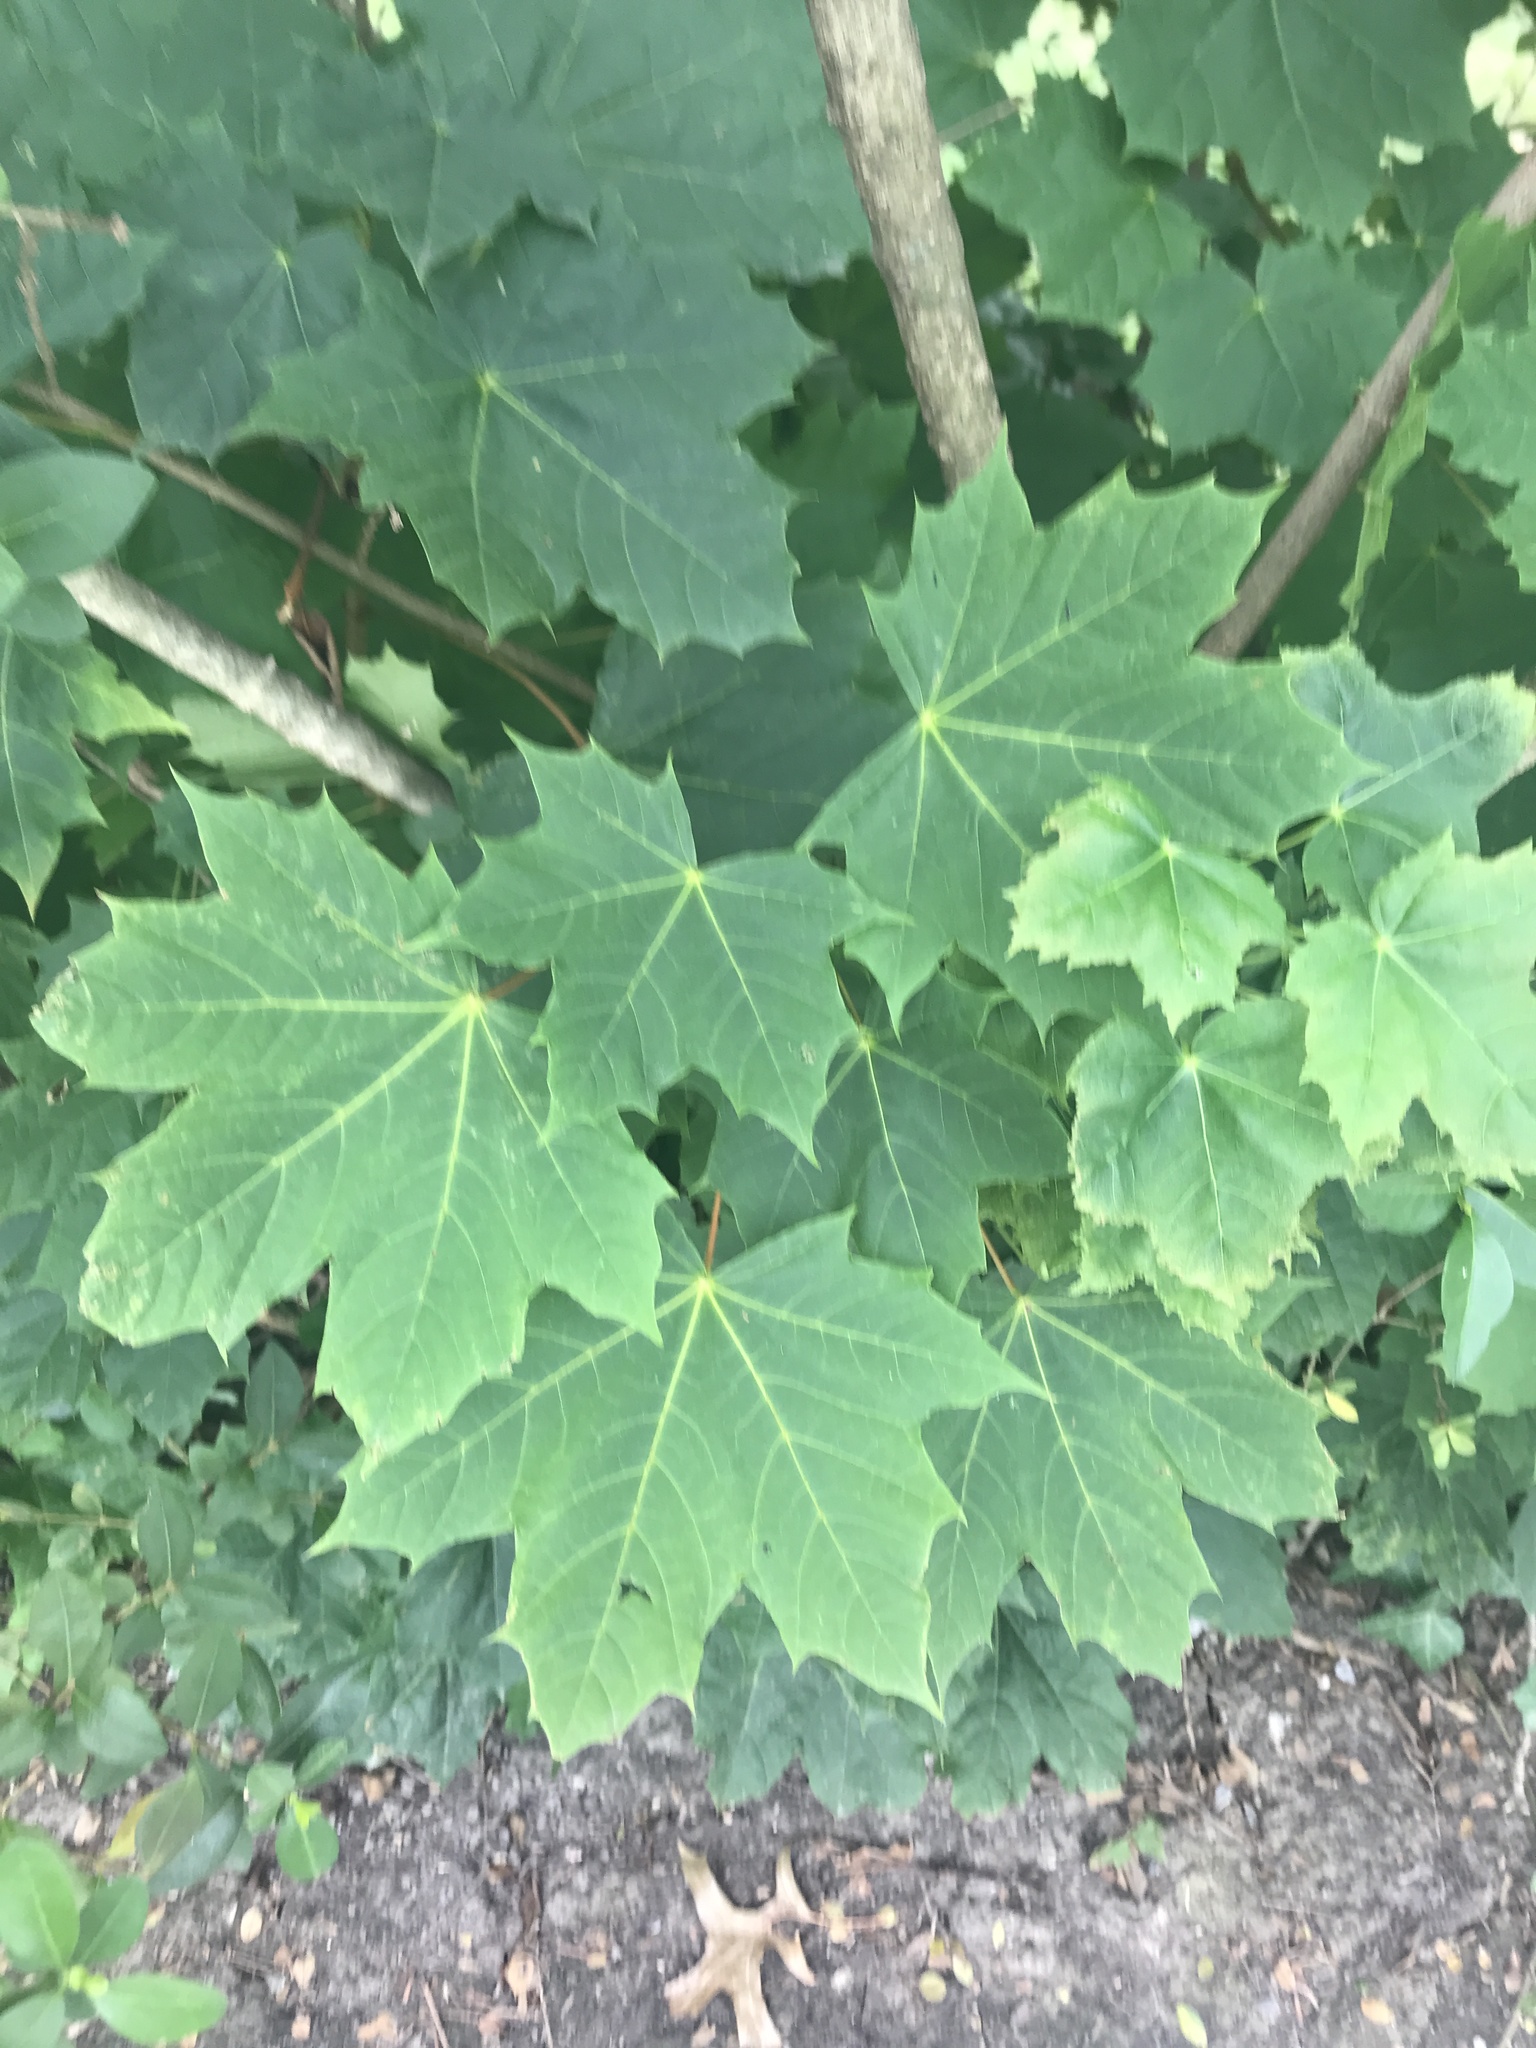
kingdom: Plantae
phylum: Tracheophyta
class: Magnoliopsida
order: Sapindales
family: Sapindaceae
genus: Acer
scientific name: Acer platanoides
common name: Norway maple
